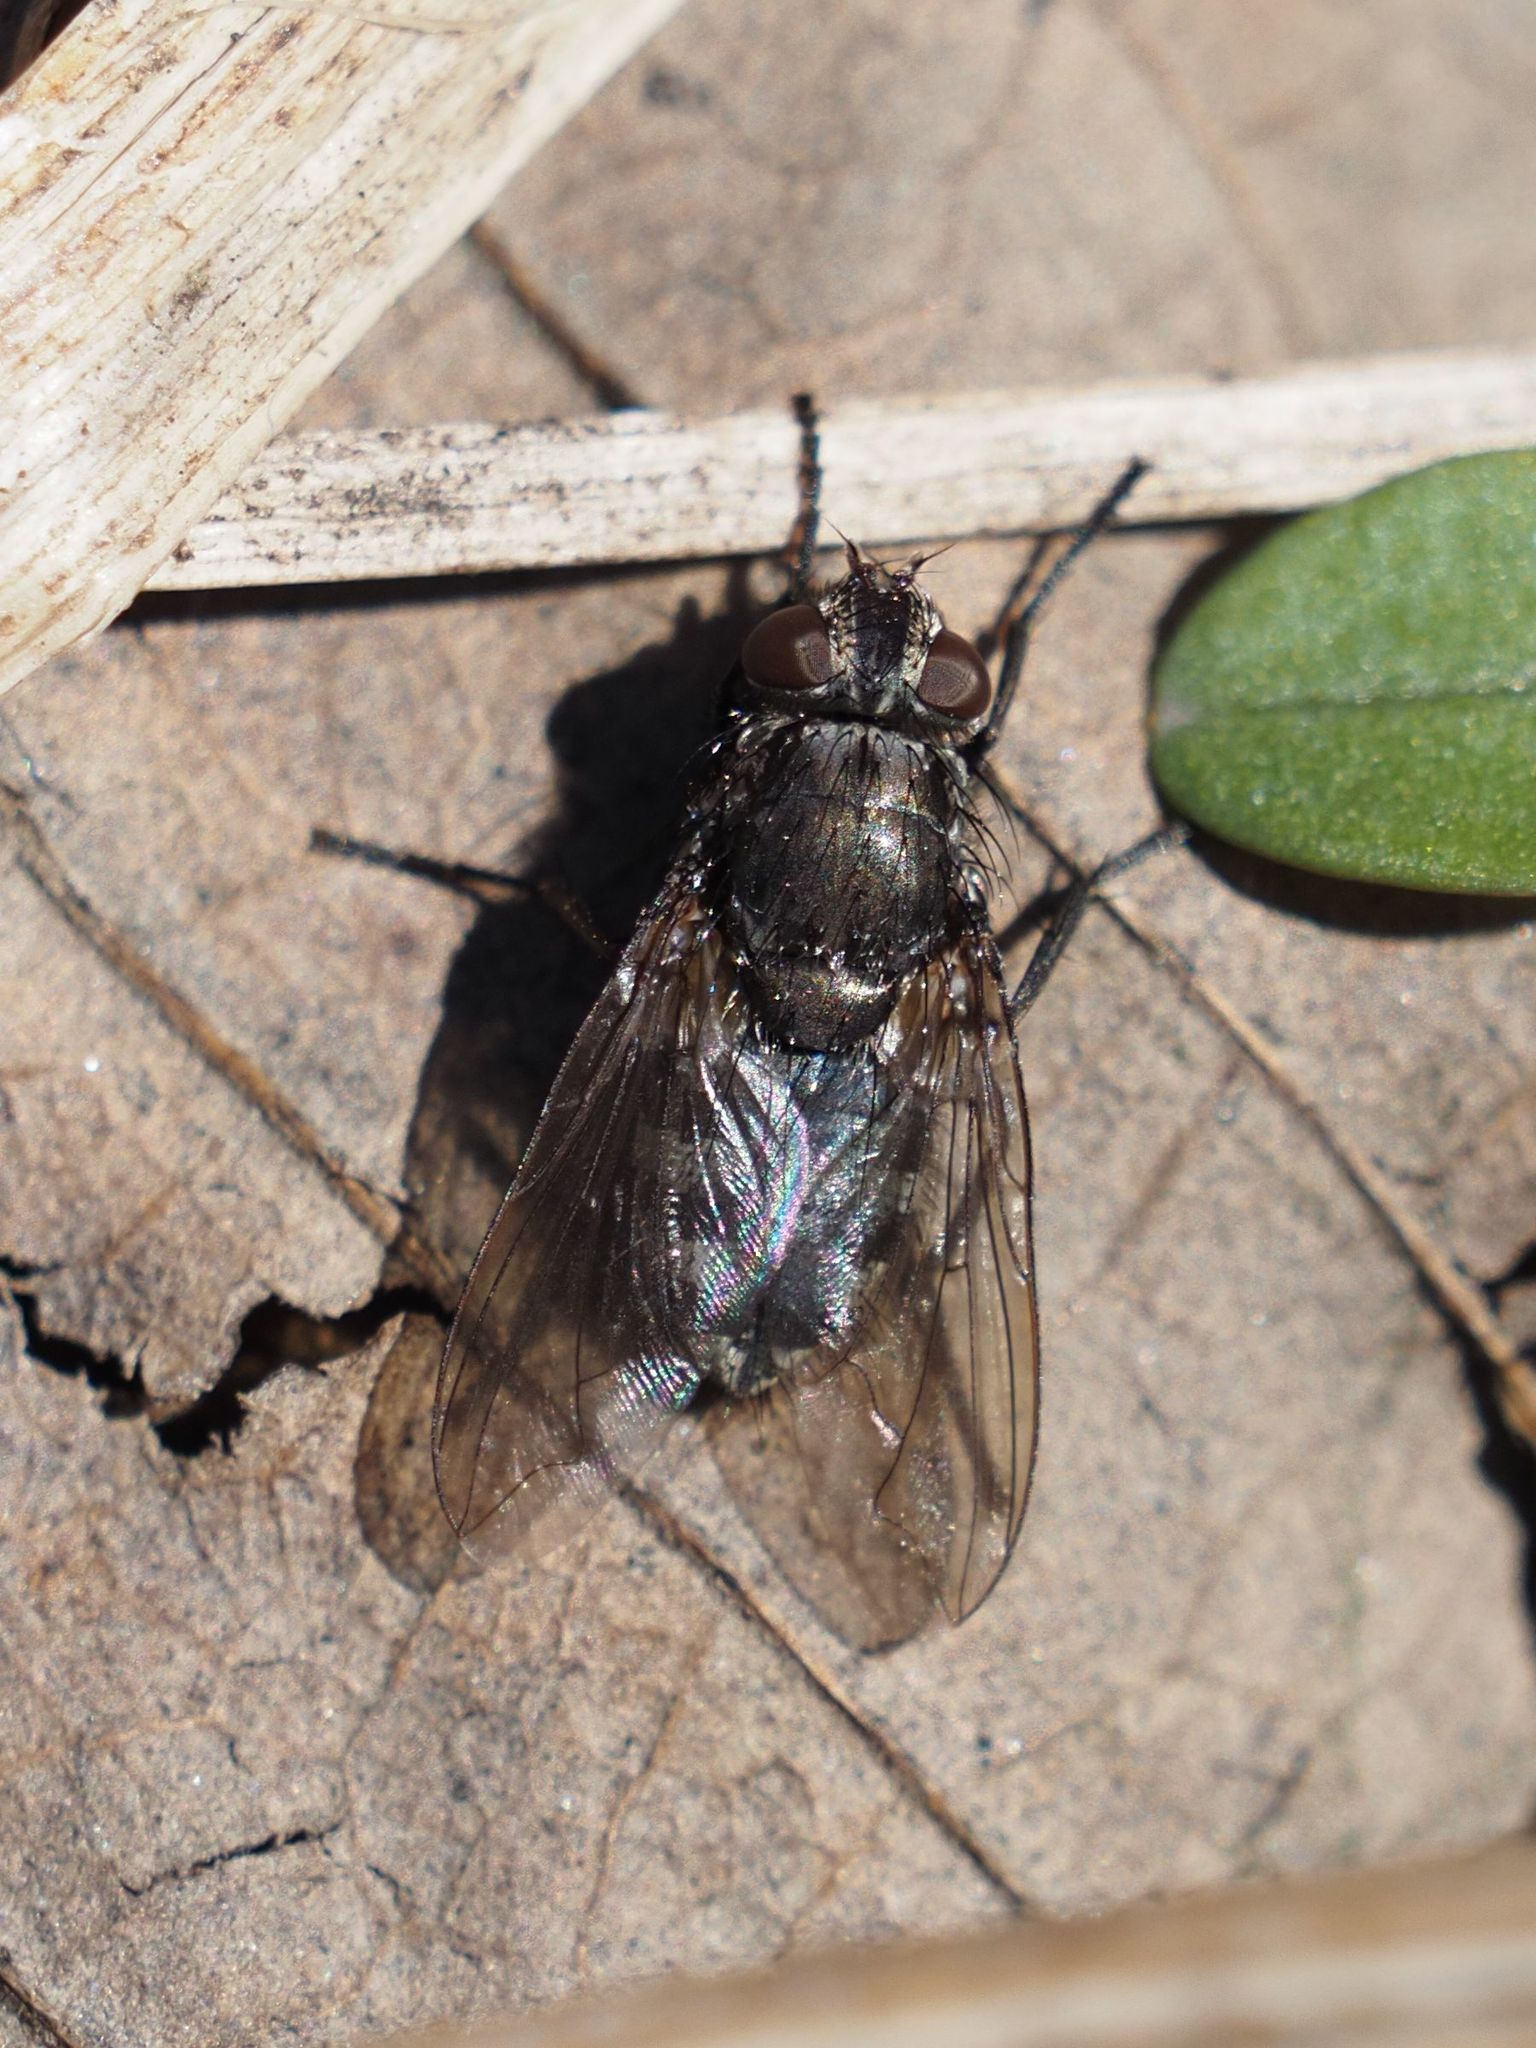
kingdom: Animalia
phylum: Arthropoda
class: Insecta
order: Diptera
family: Polleniidae
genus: Pollenia
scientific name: Pollenia vagabunda
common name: Vagabund cluster fly
